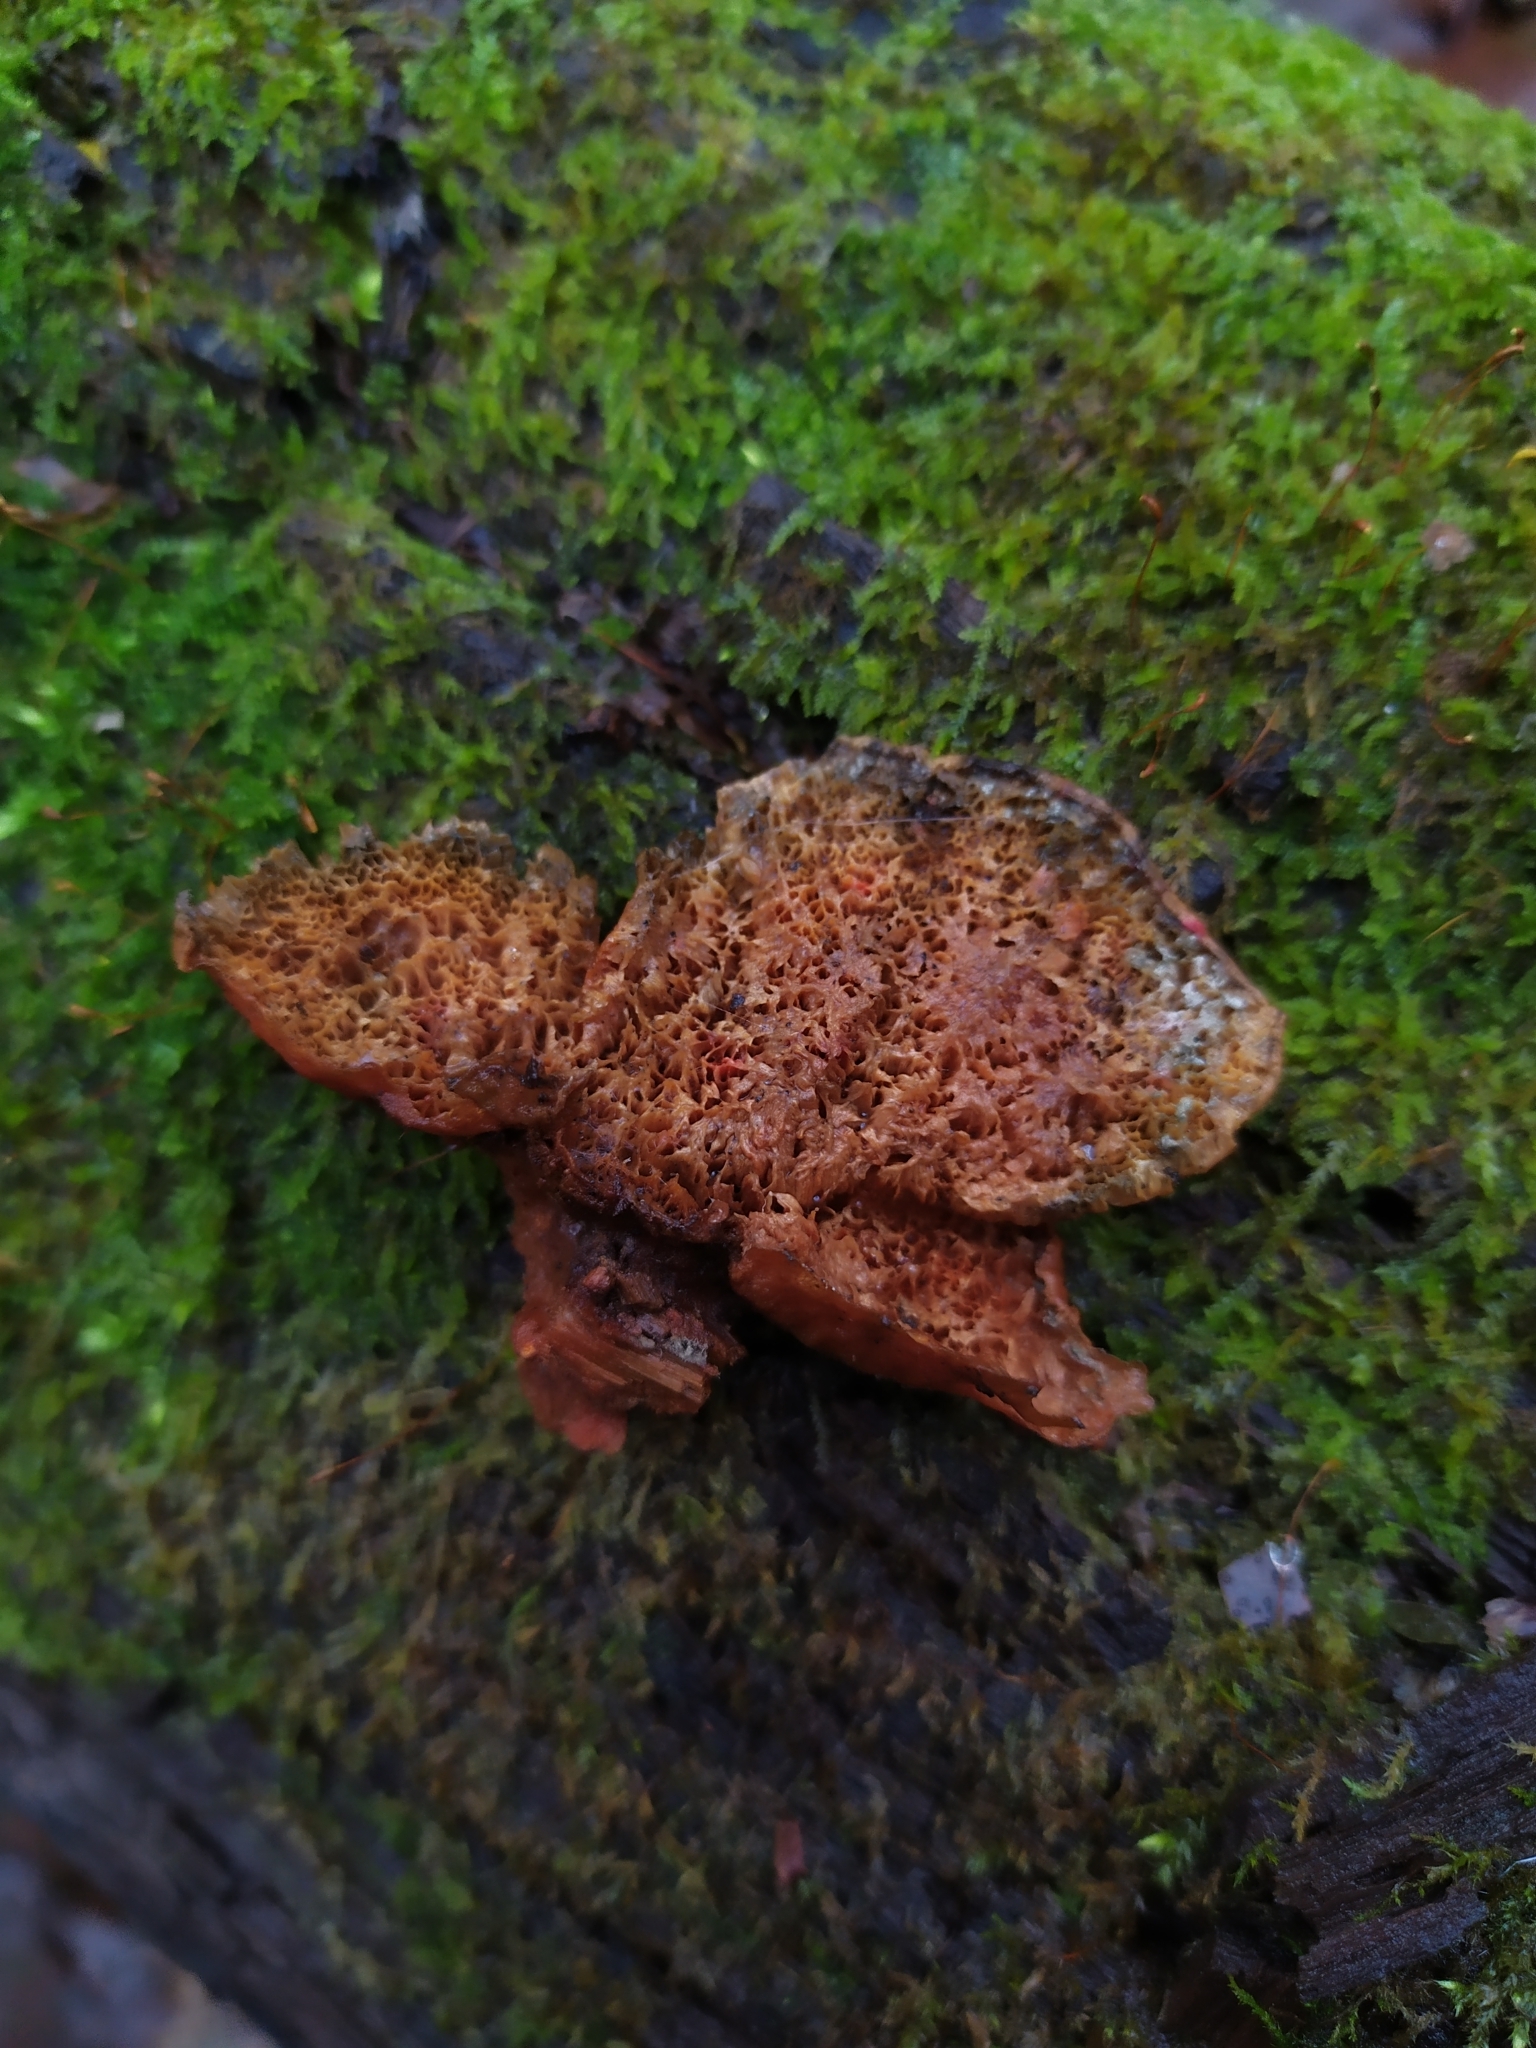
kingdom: Fungi
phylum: Basidiomycota
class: Agaricomycetes
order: Polyporales
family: Pycnoporellaceae
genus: Pycnoporellus
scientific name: Pycnoporellus fulgens
